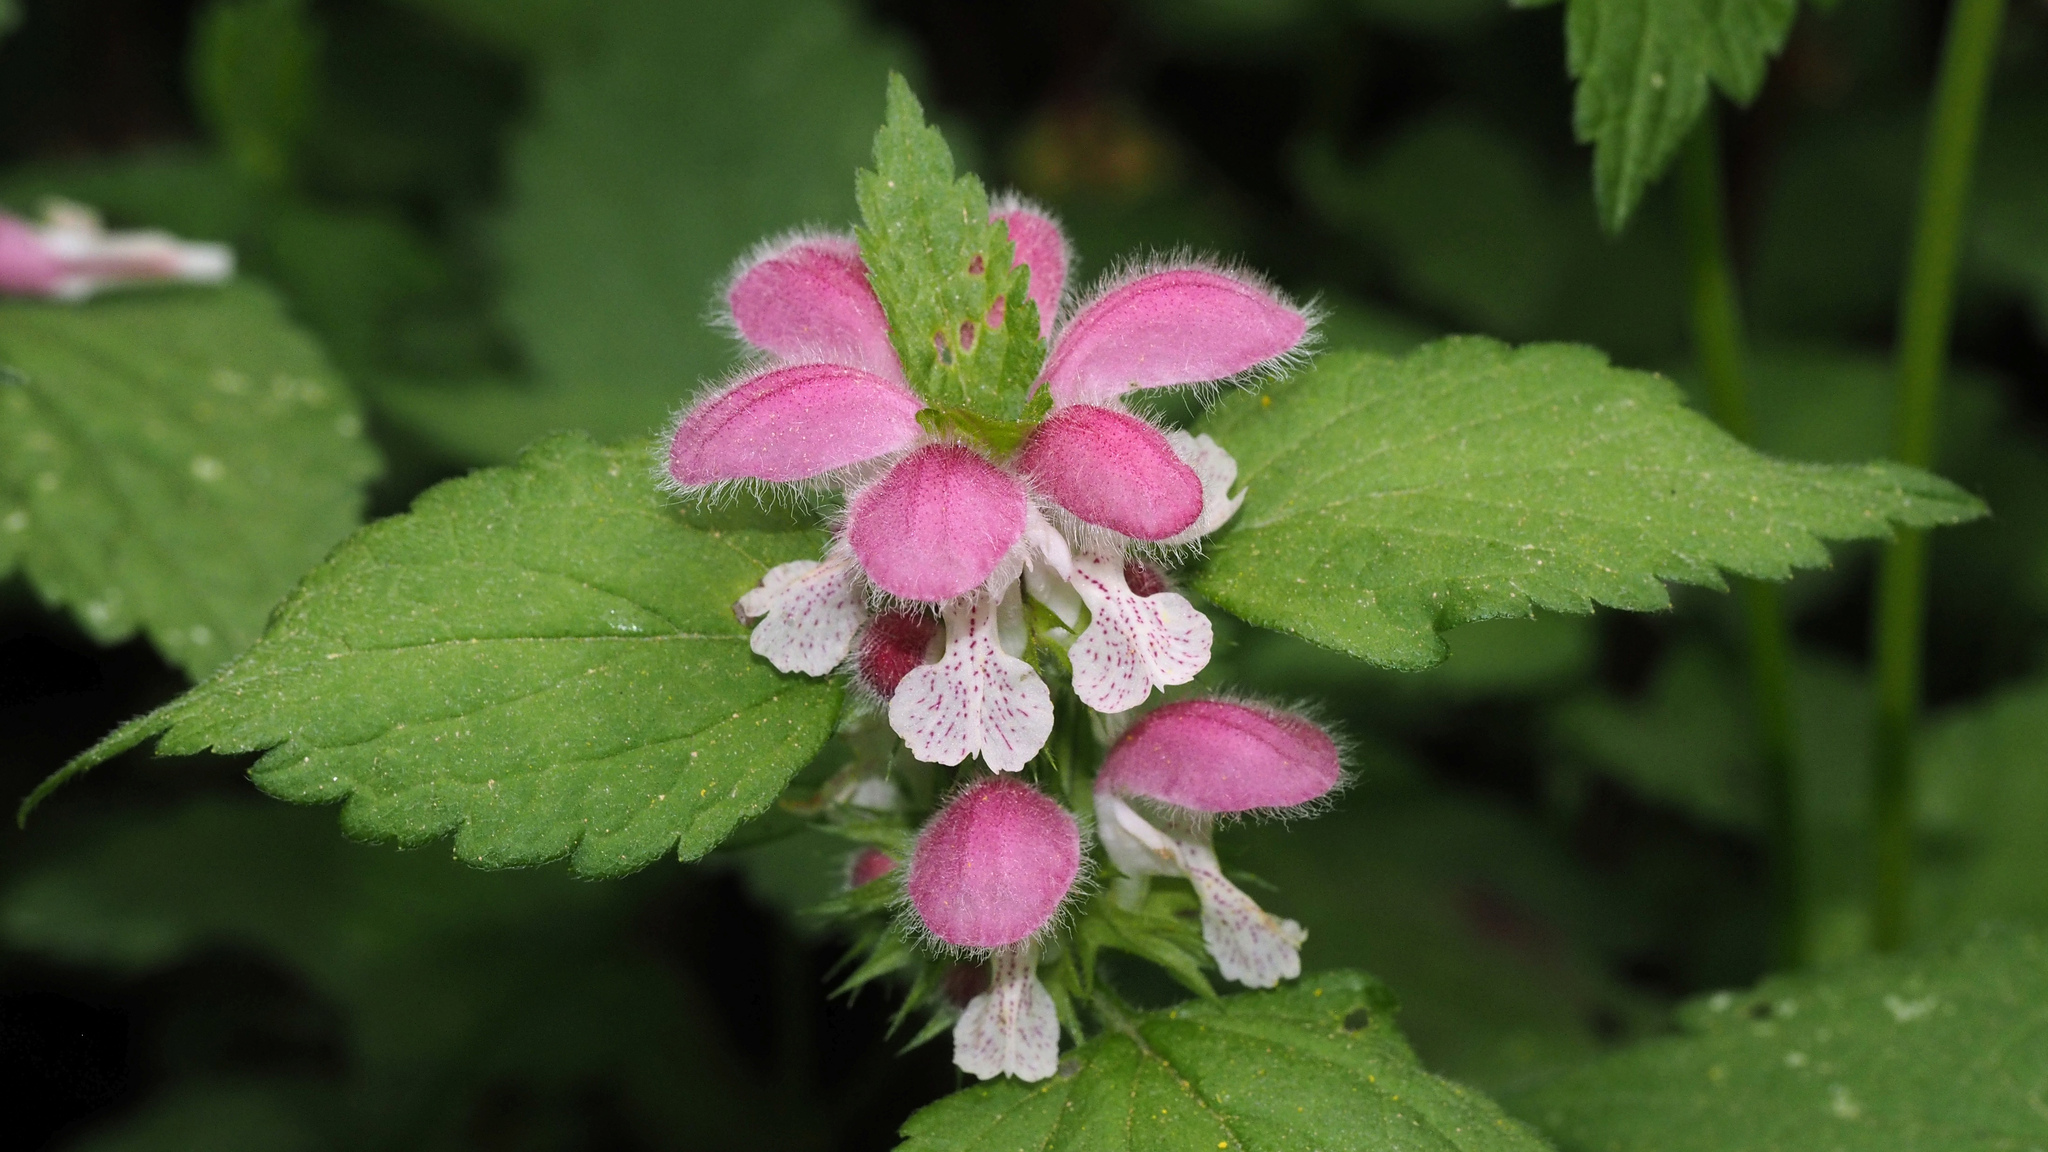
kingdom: Plantae
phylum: Tracheophyta
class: Magnoliopsida
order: Lamiales
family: Lamiaceae
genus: Lamium
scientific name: Lamium flexuosum
